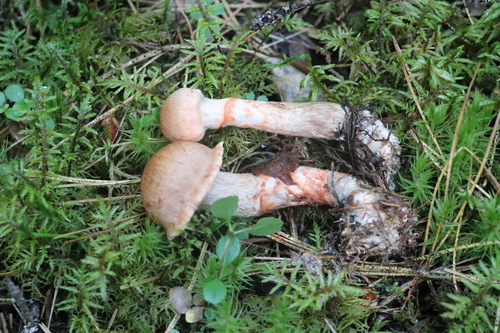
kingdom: Fungi
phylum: Basidiomycota
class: Agaricomycetes
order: Agaricales
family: Cortinariaceae
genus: Cortinarius
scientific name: Cortinarius armillatus
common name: Red banded webcap
